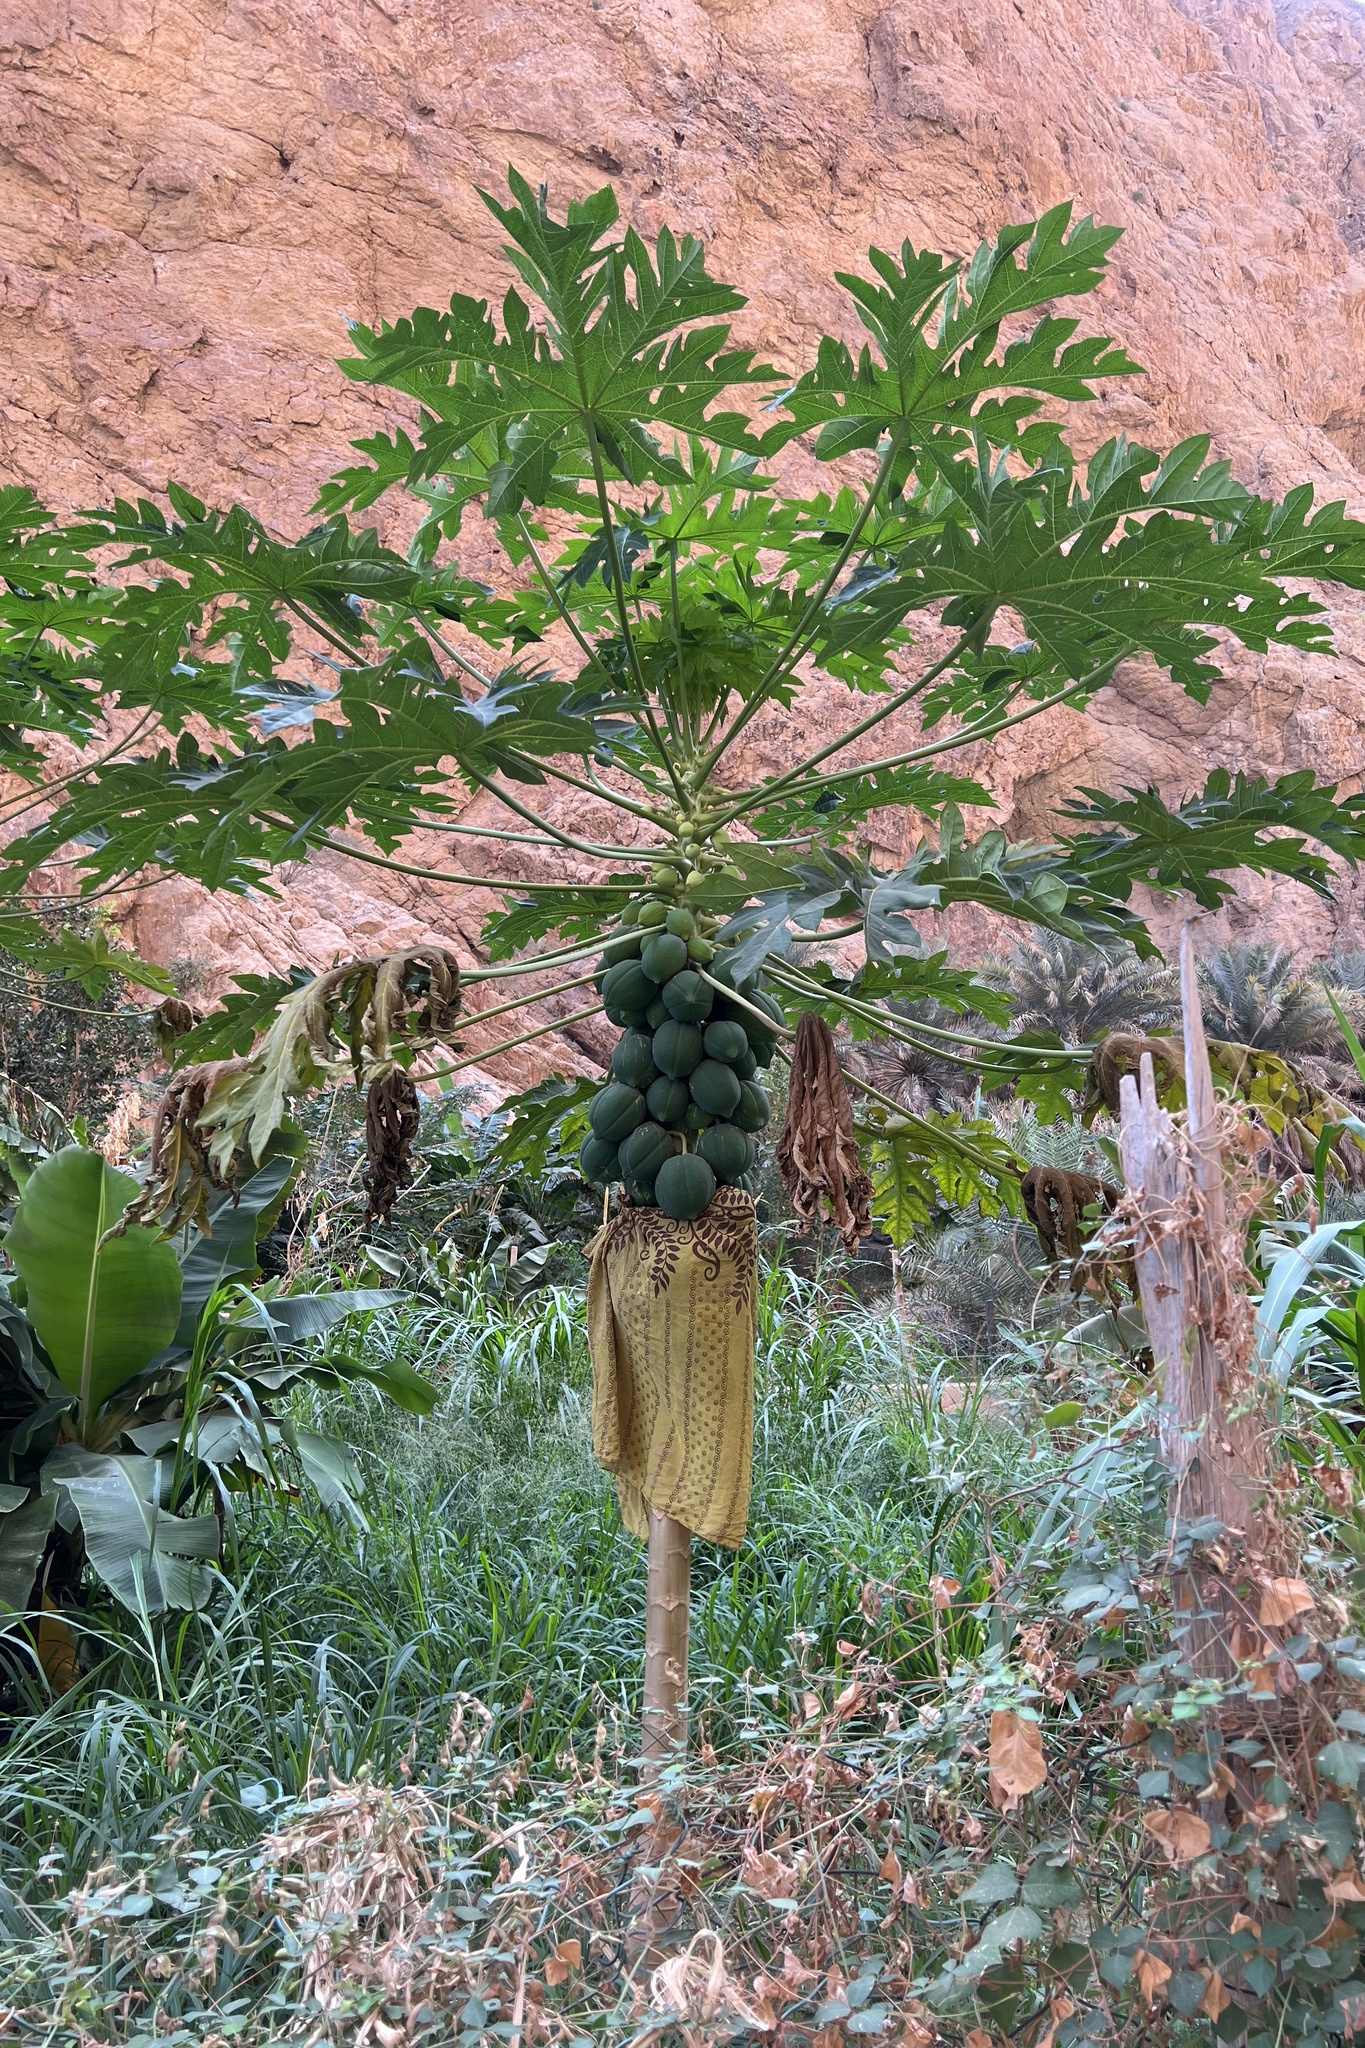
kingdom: Plantae
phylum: Tracheophyta
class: Magnoliopsida
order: Brassicales
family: Caricaceae
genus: Carica
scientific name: Carica papaya
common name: Papaya
